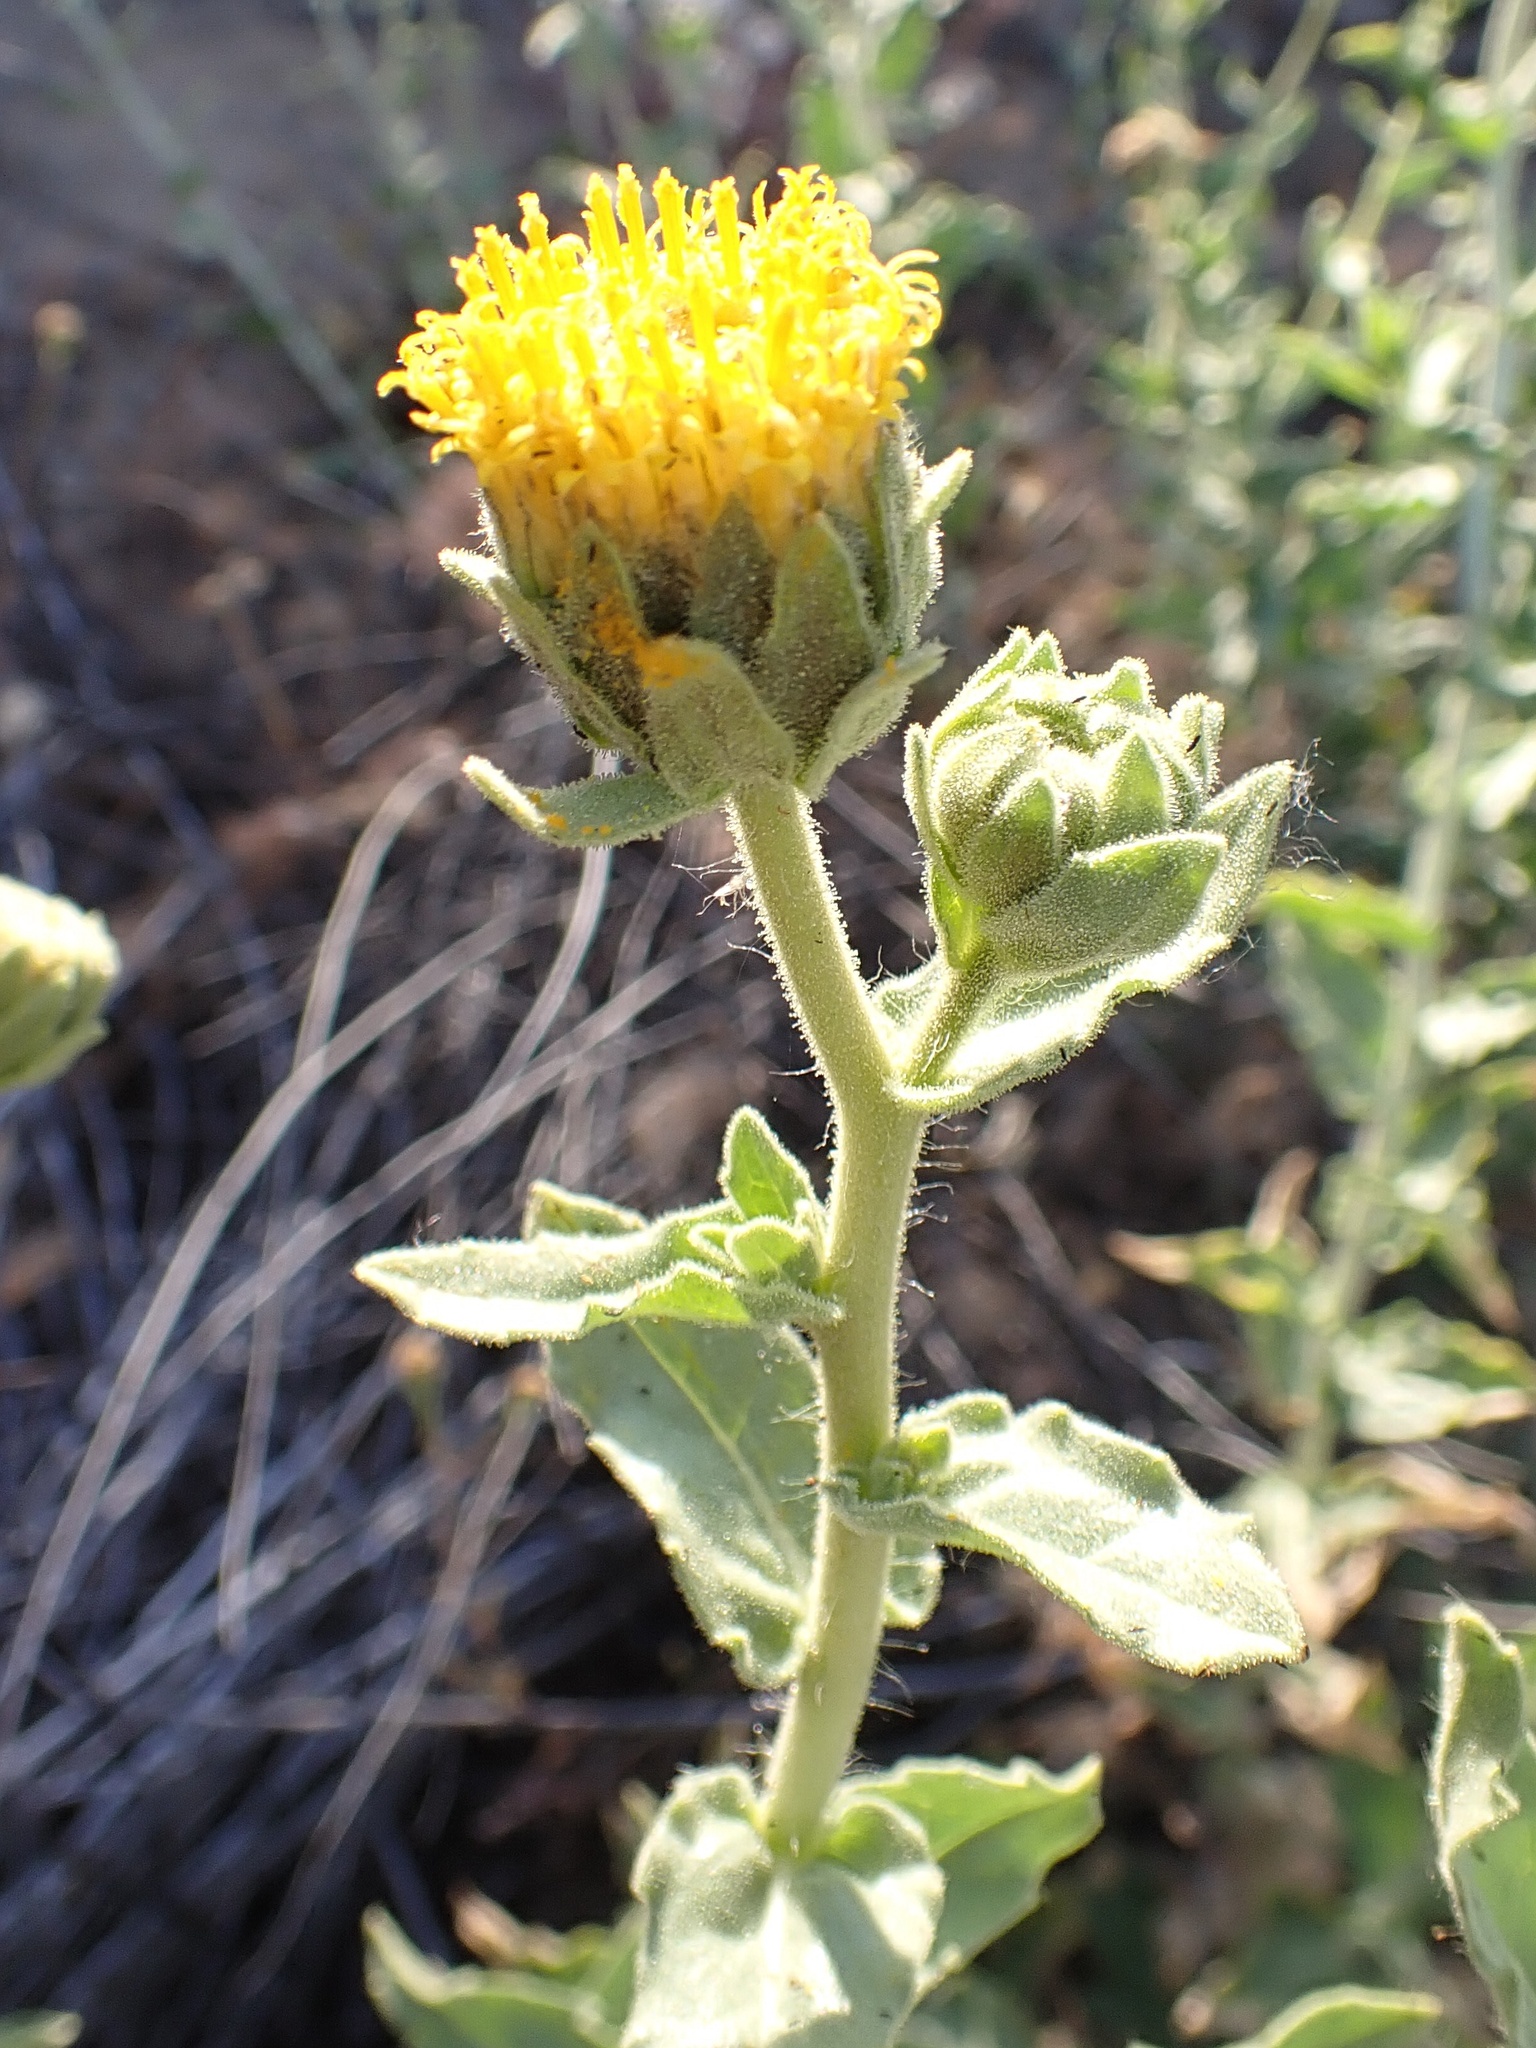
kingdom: Plantae
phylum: Tracheophyta
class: Magnoliopsida
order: Asterales
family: Asteraceae
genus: Geraea
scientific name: Geraea viscida
